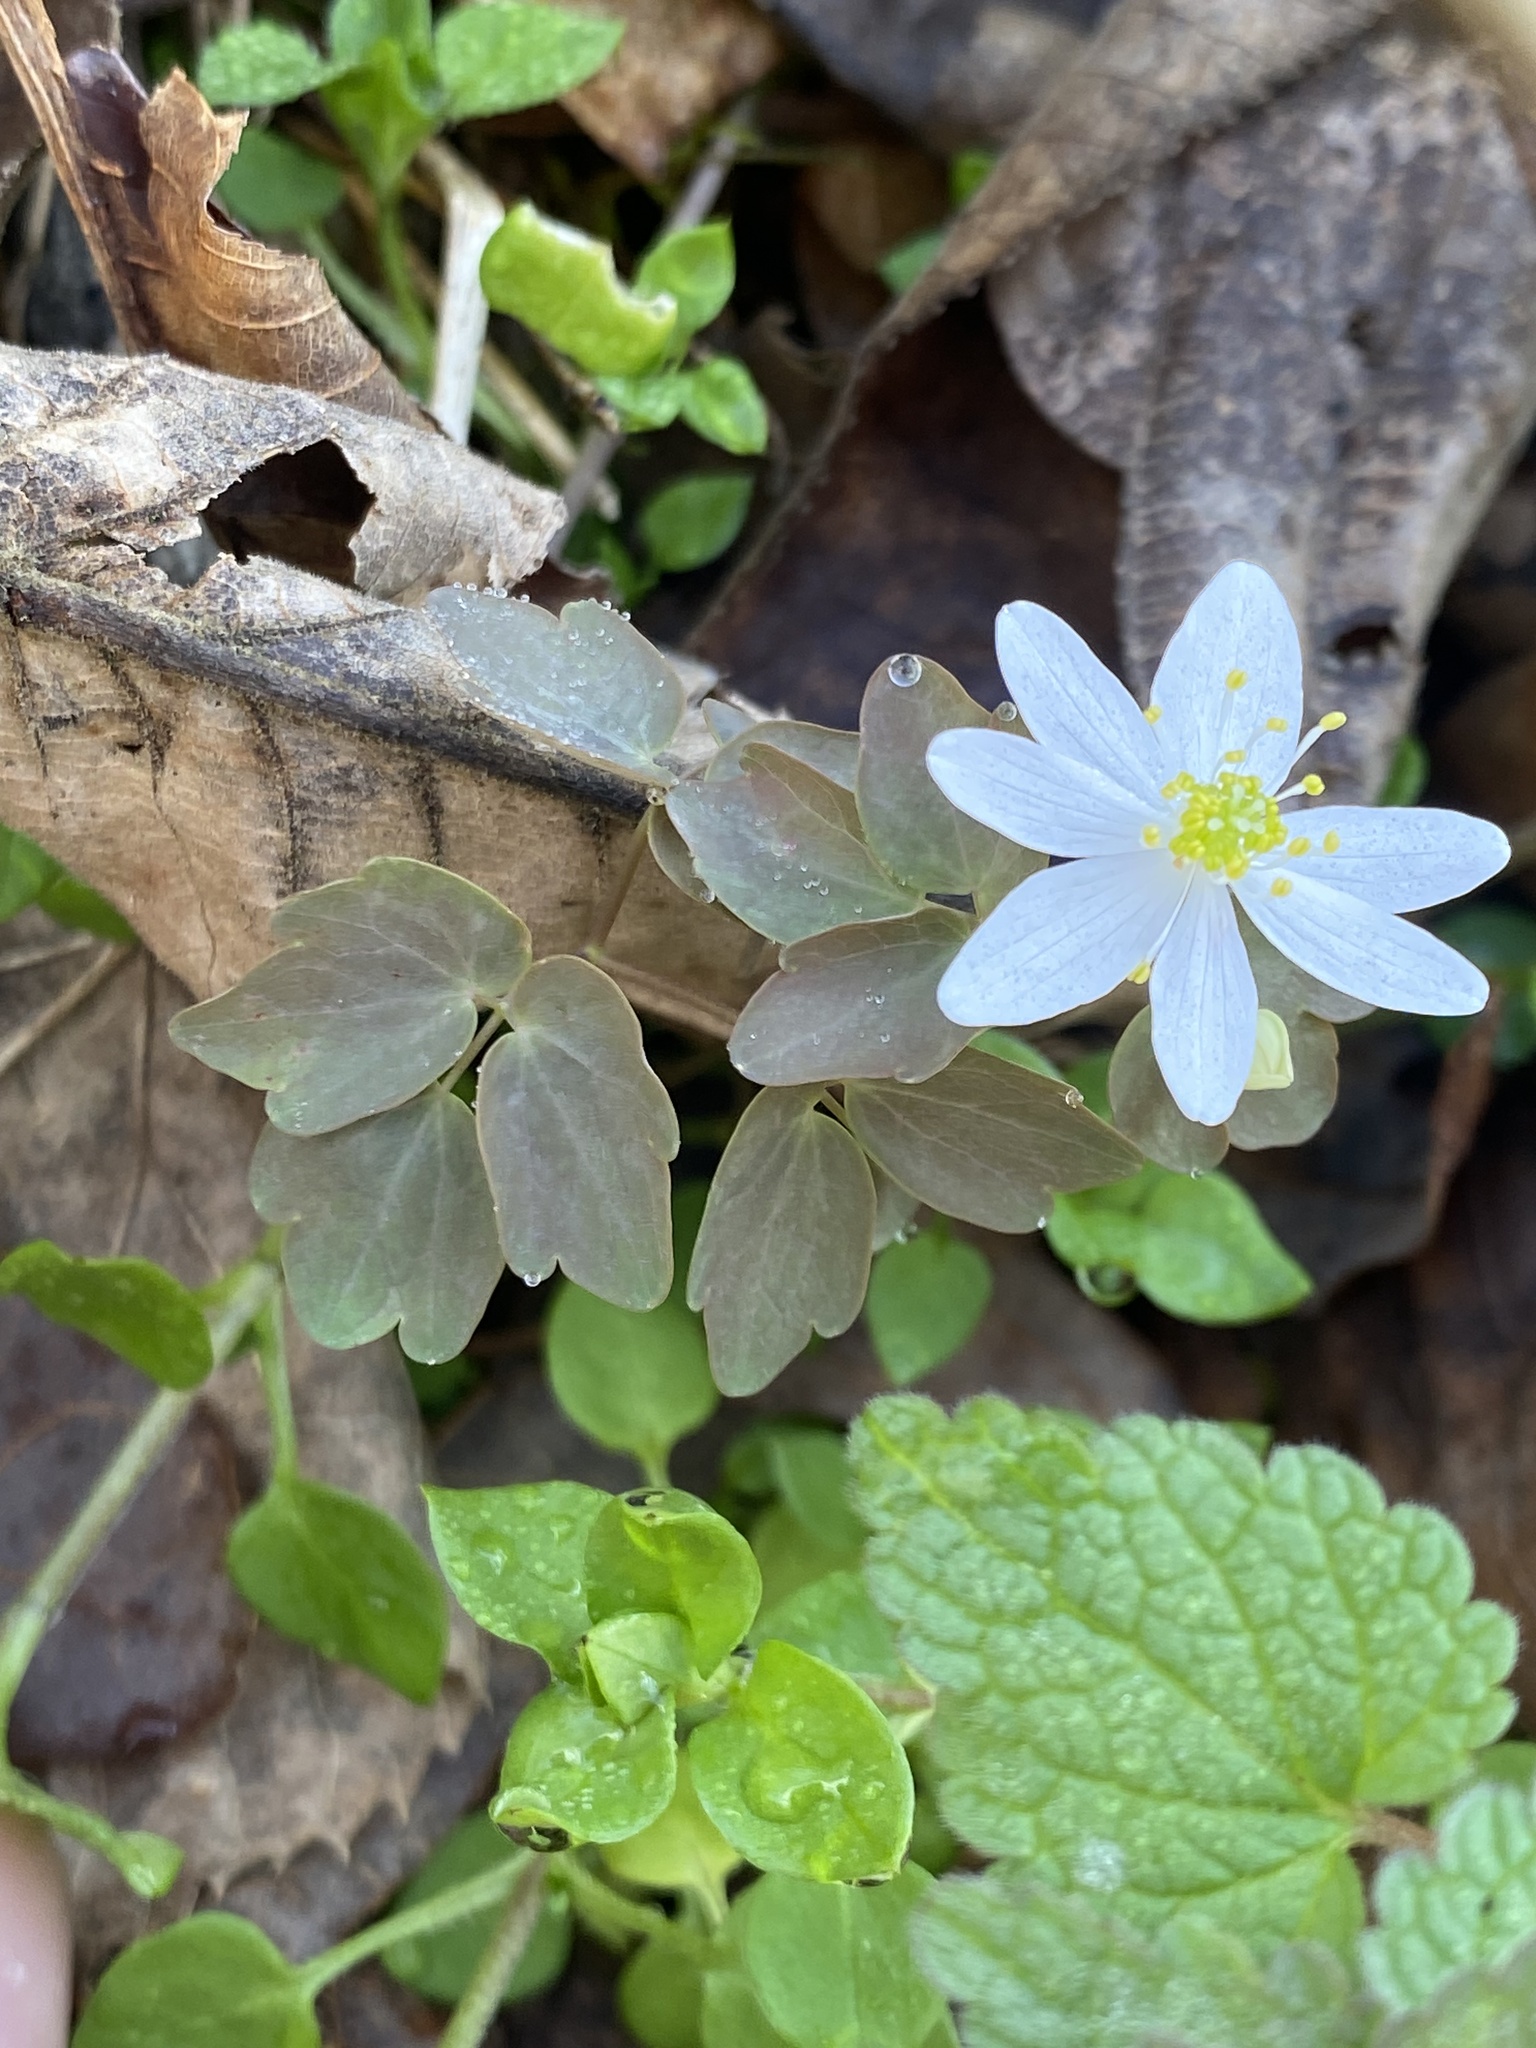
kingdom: Plantae
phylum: Tracheophyta
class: Magnoliopsida
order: Ranunculales
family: Ranunculaceae
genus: Thalictrum
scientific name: Thalictrum thalictroides
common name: Rue-anemone
